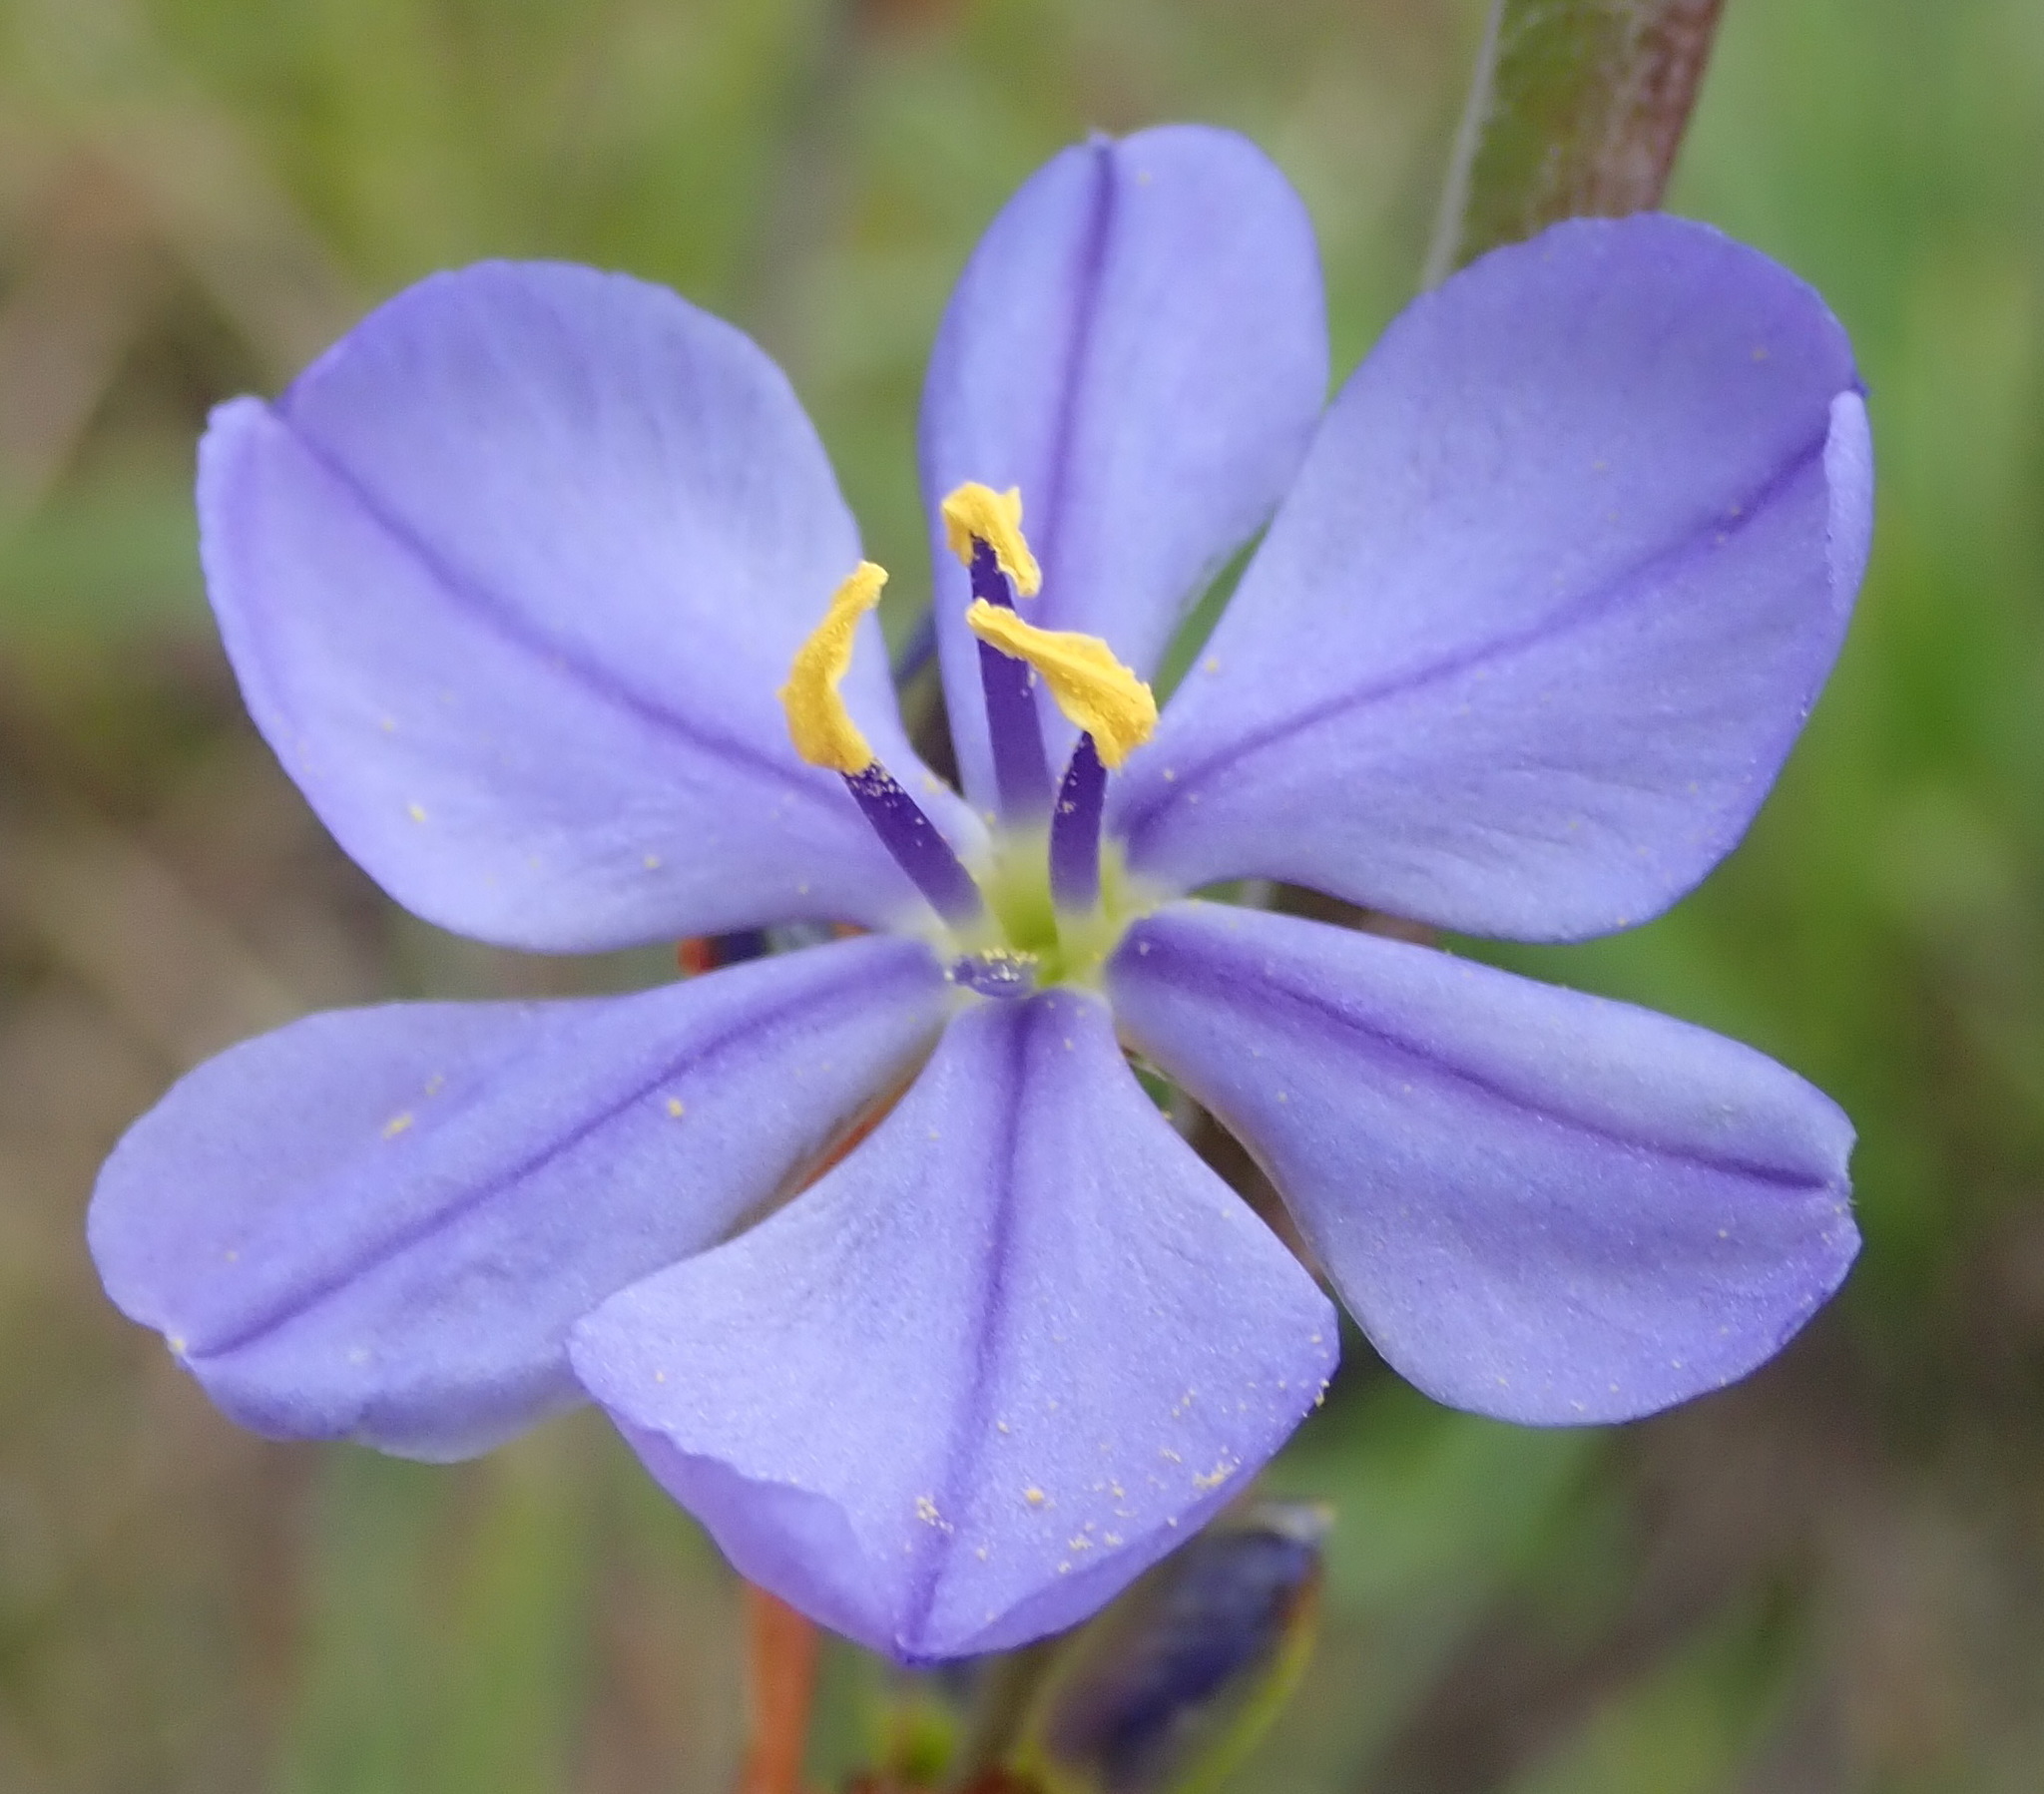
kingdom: Plantae
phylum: Tracheophyta
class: Liliopsida
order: Asparagales
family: Iridaceae
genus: Aristea
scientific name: Aristea bakeri
